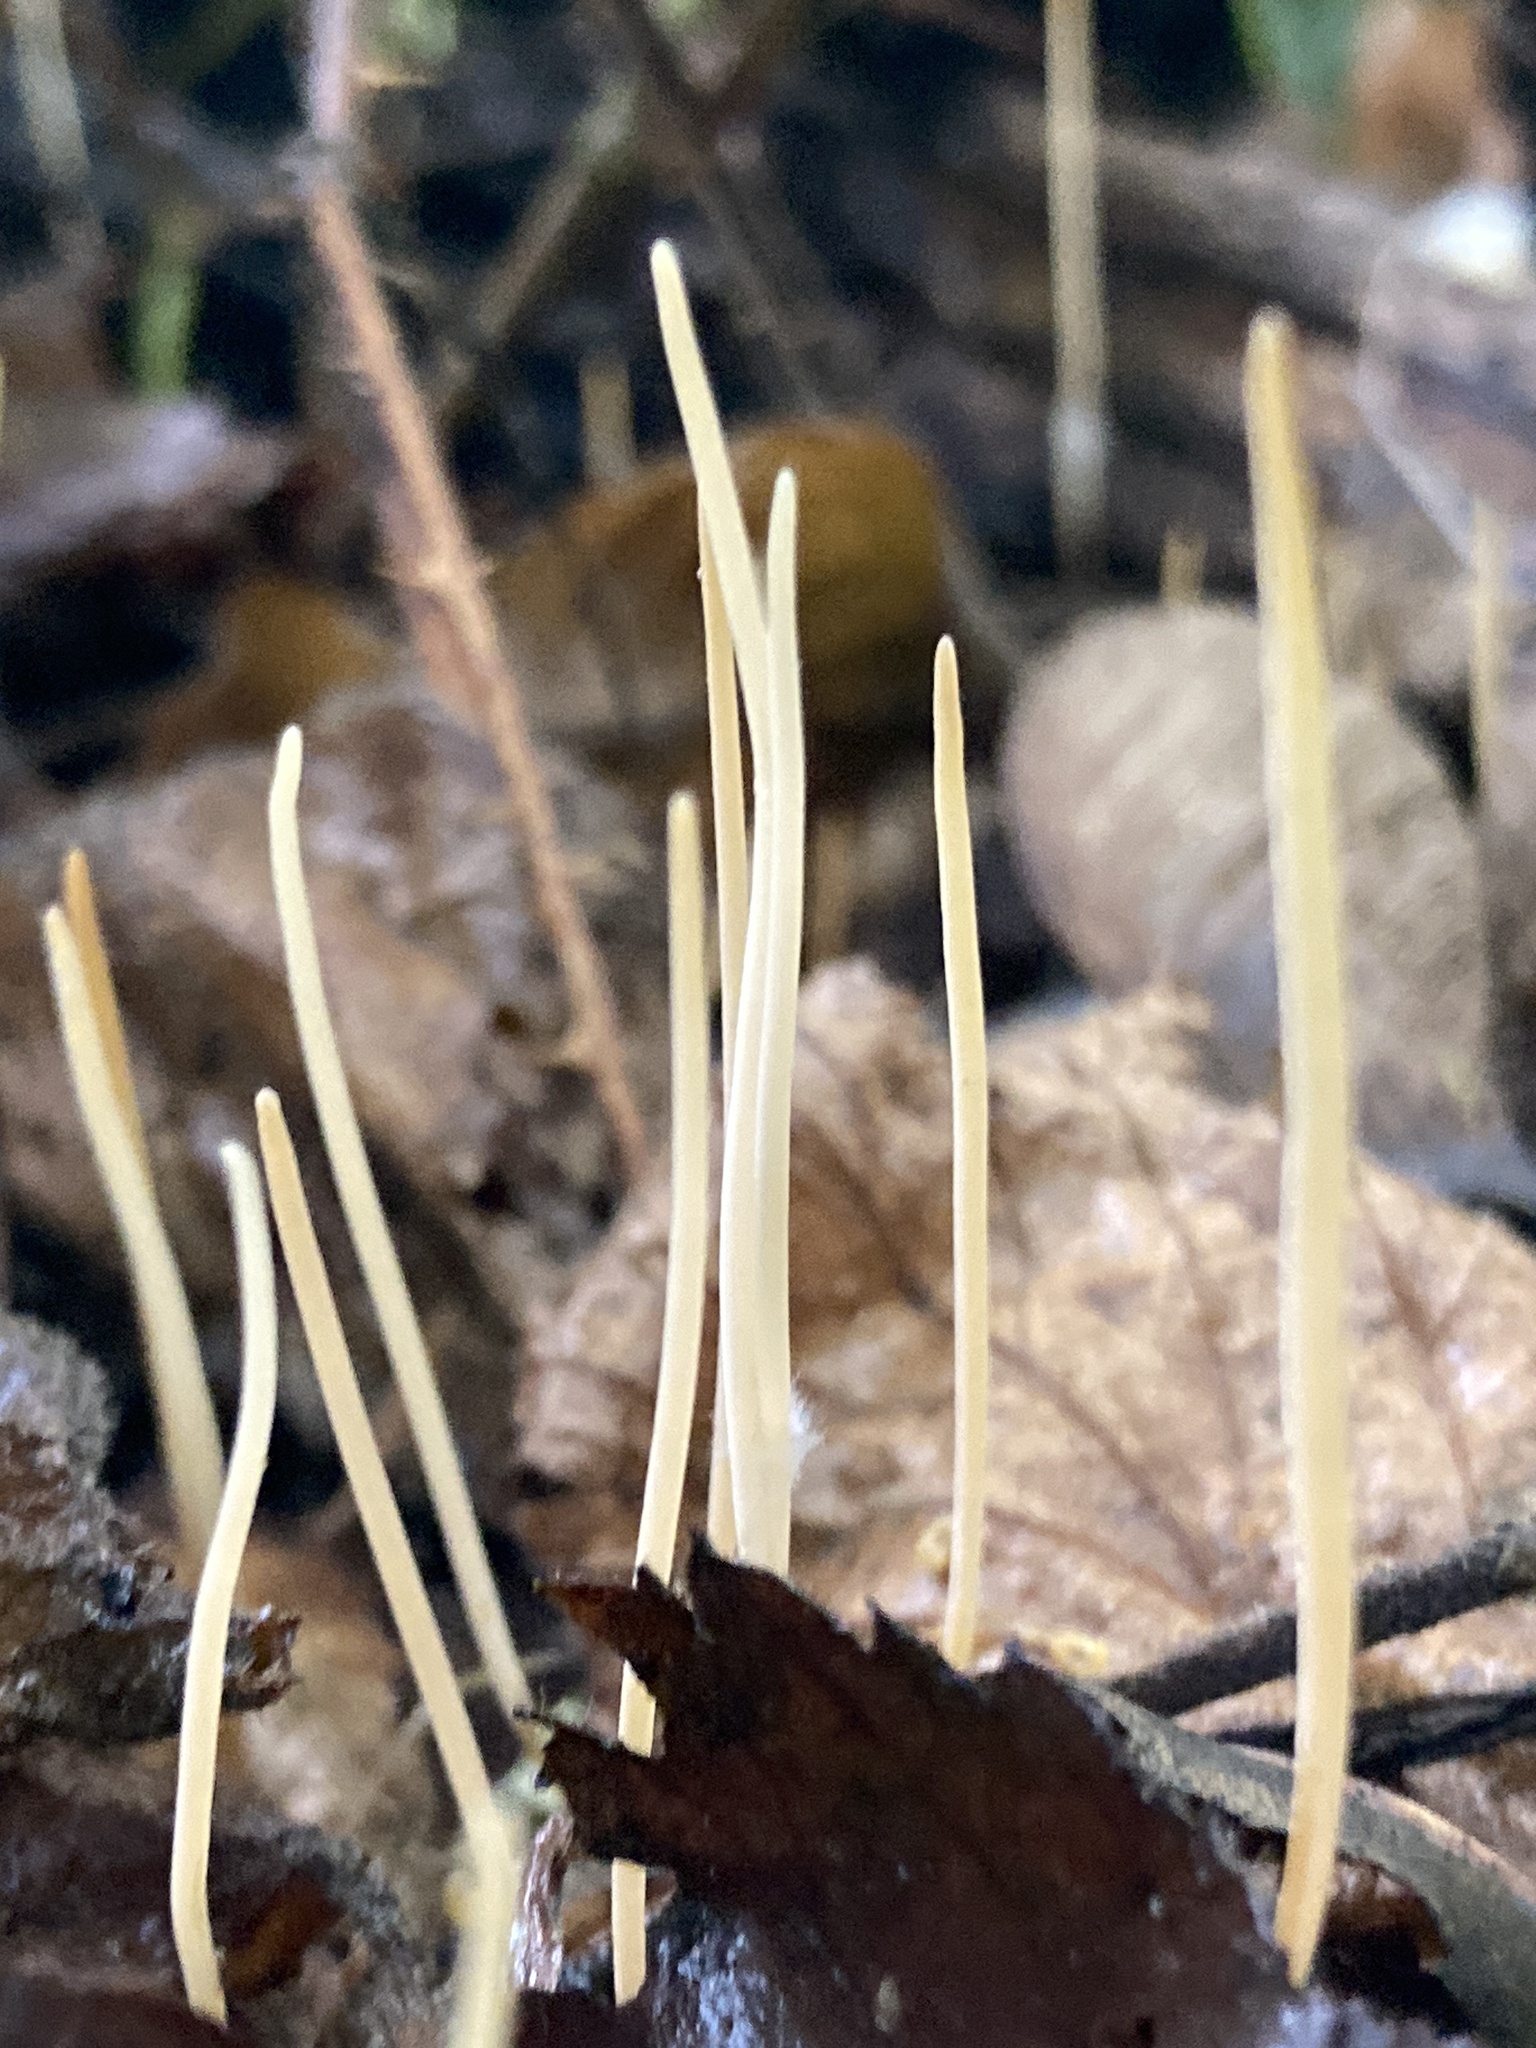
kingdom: Fungi
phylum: Basidiomycota
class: Agaricomycetes
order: Agaricales
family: Typhulaceae
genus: Typhula
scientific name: Typhula juncea
